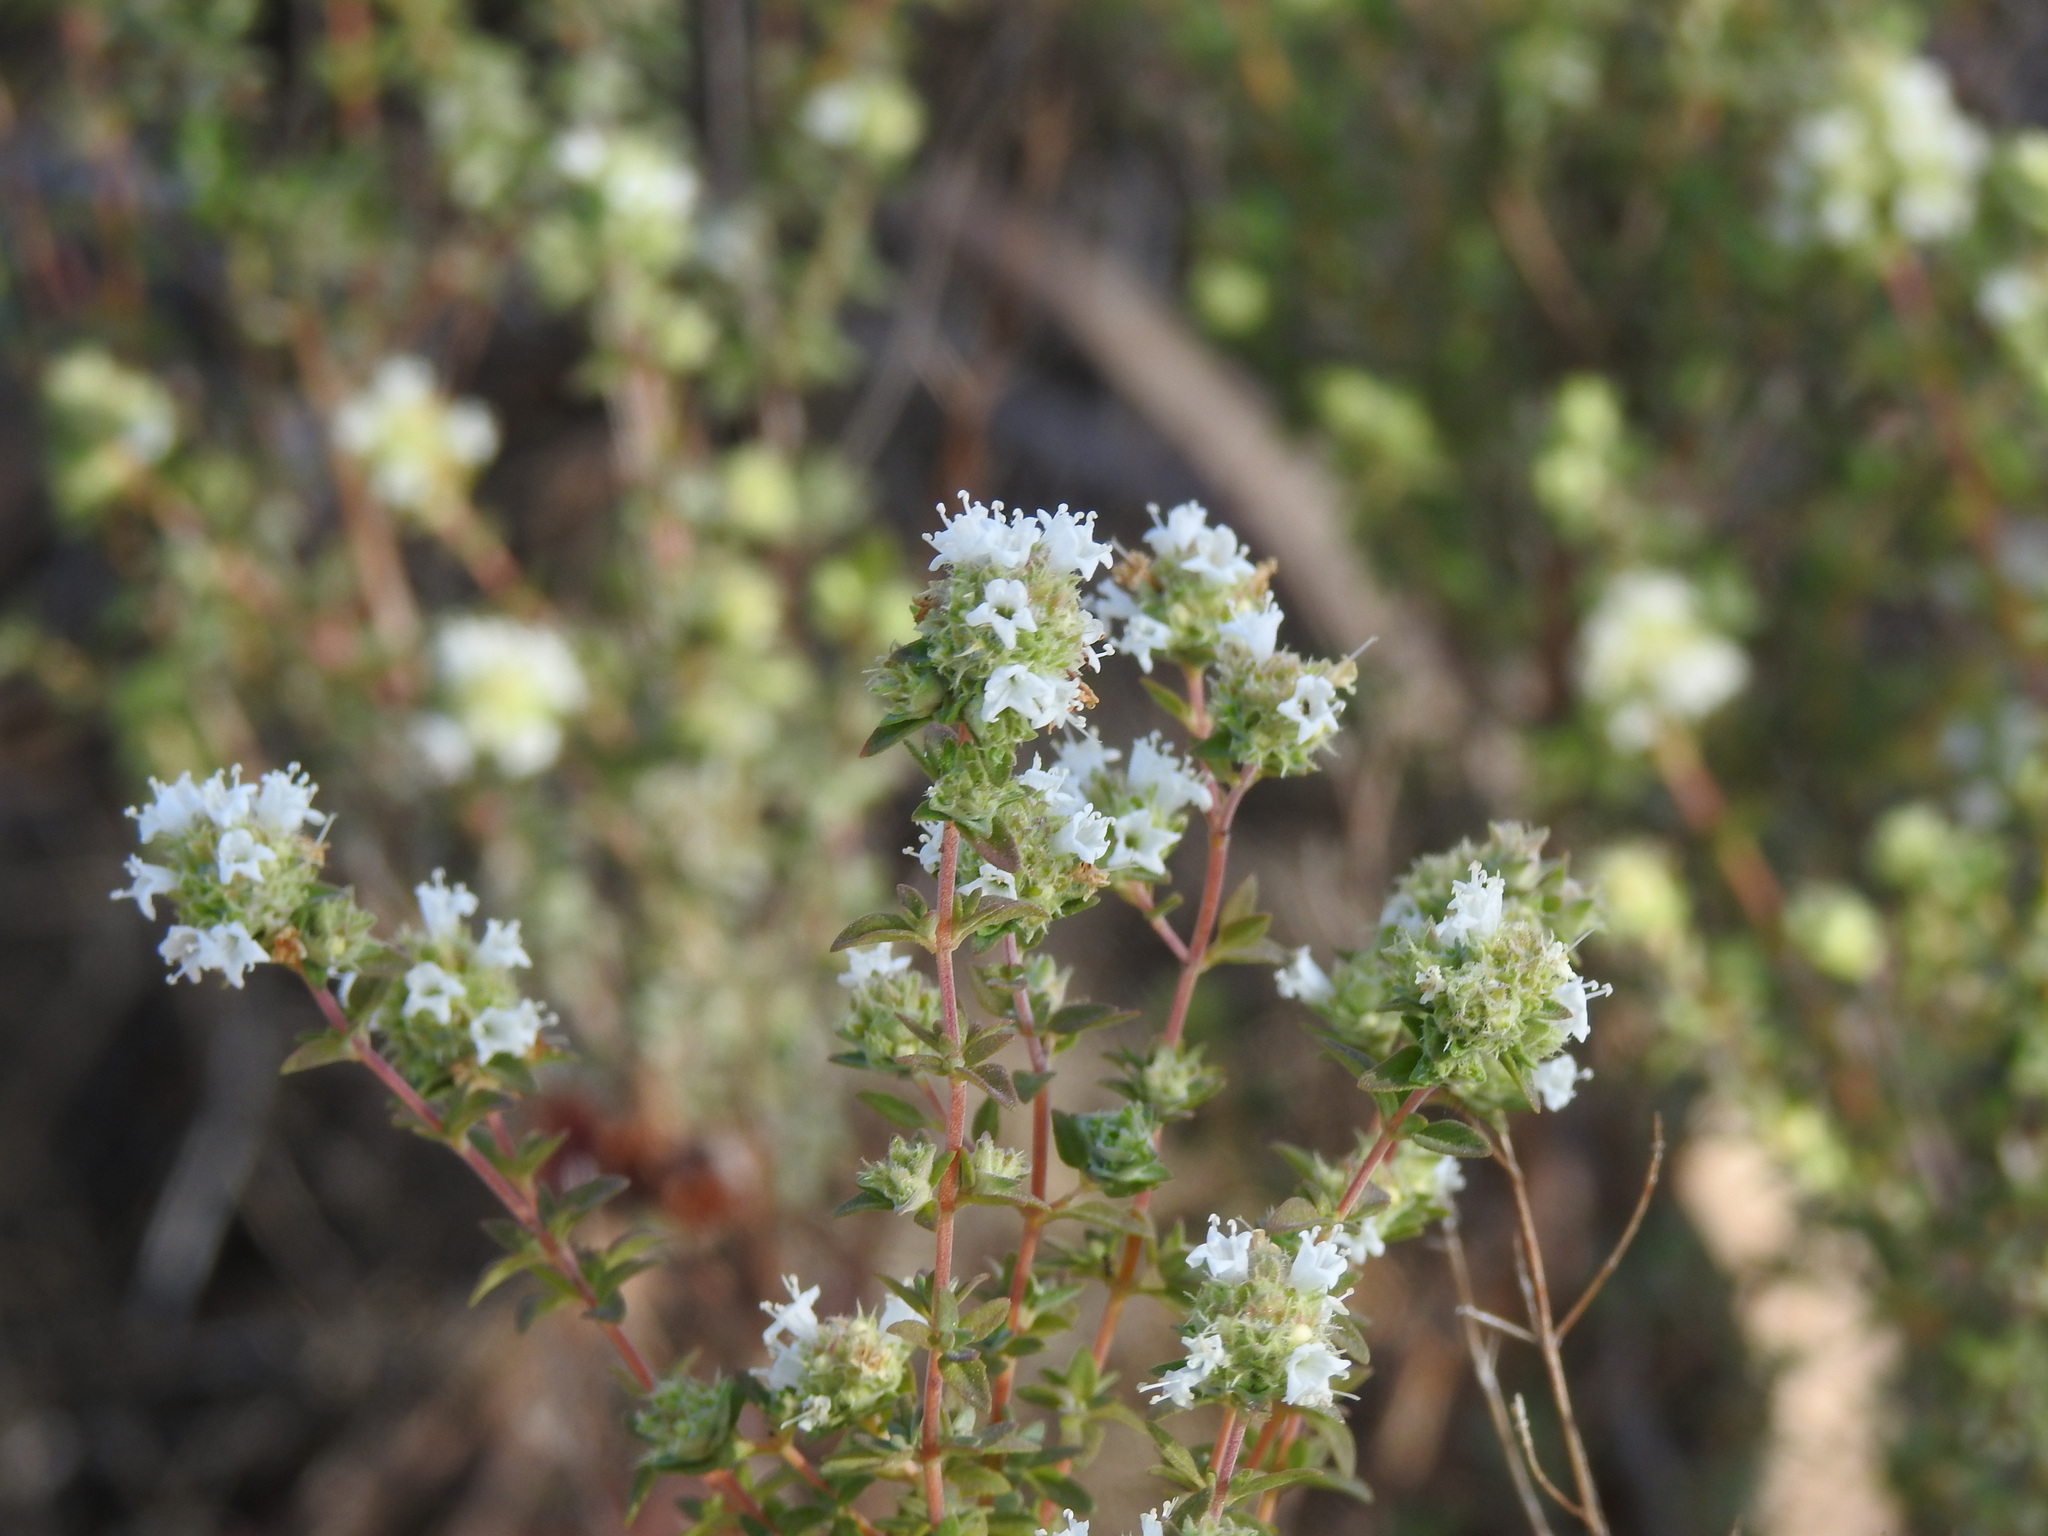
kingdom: Plantae
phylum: Tracheophyta
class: Magnoliopsida
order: Lamiales
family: Lamiaceae
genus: Thymus
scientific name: Thymus albicans
